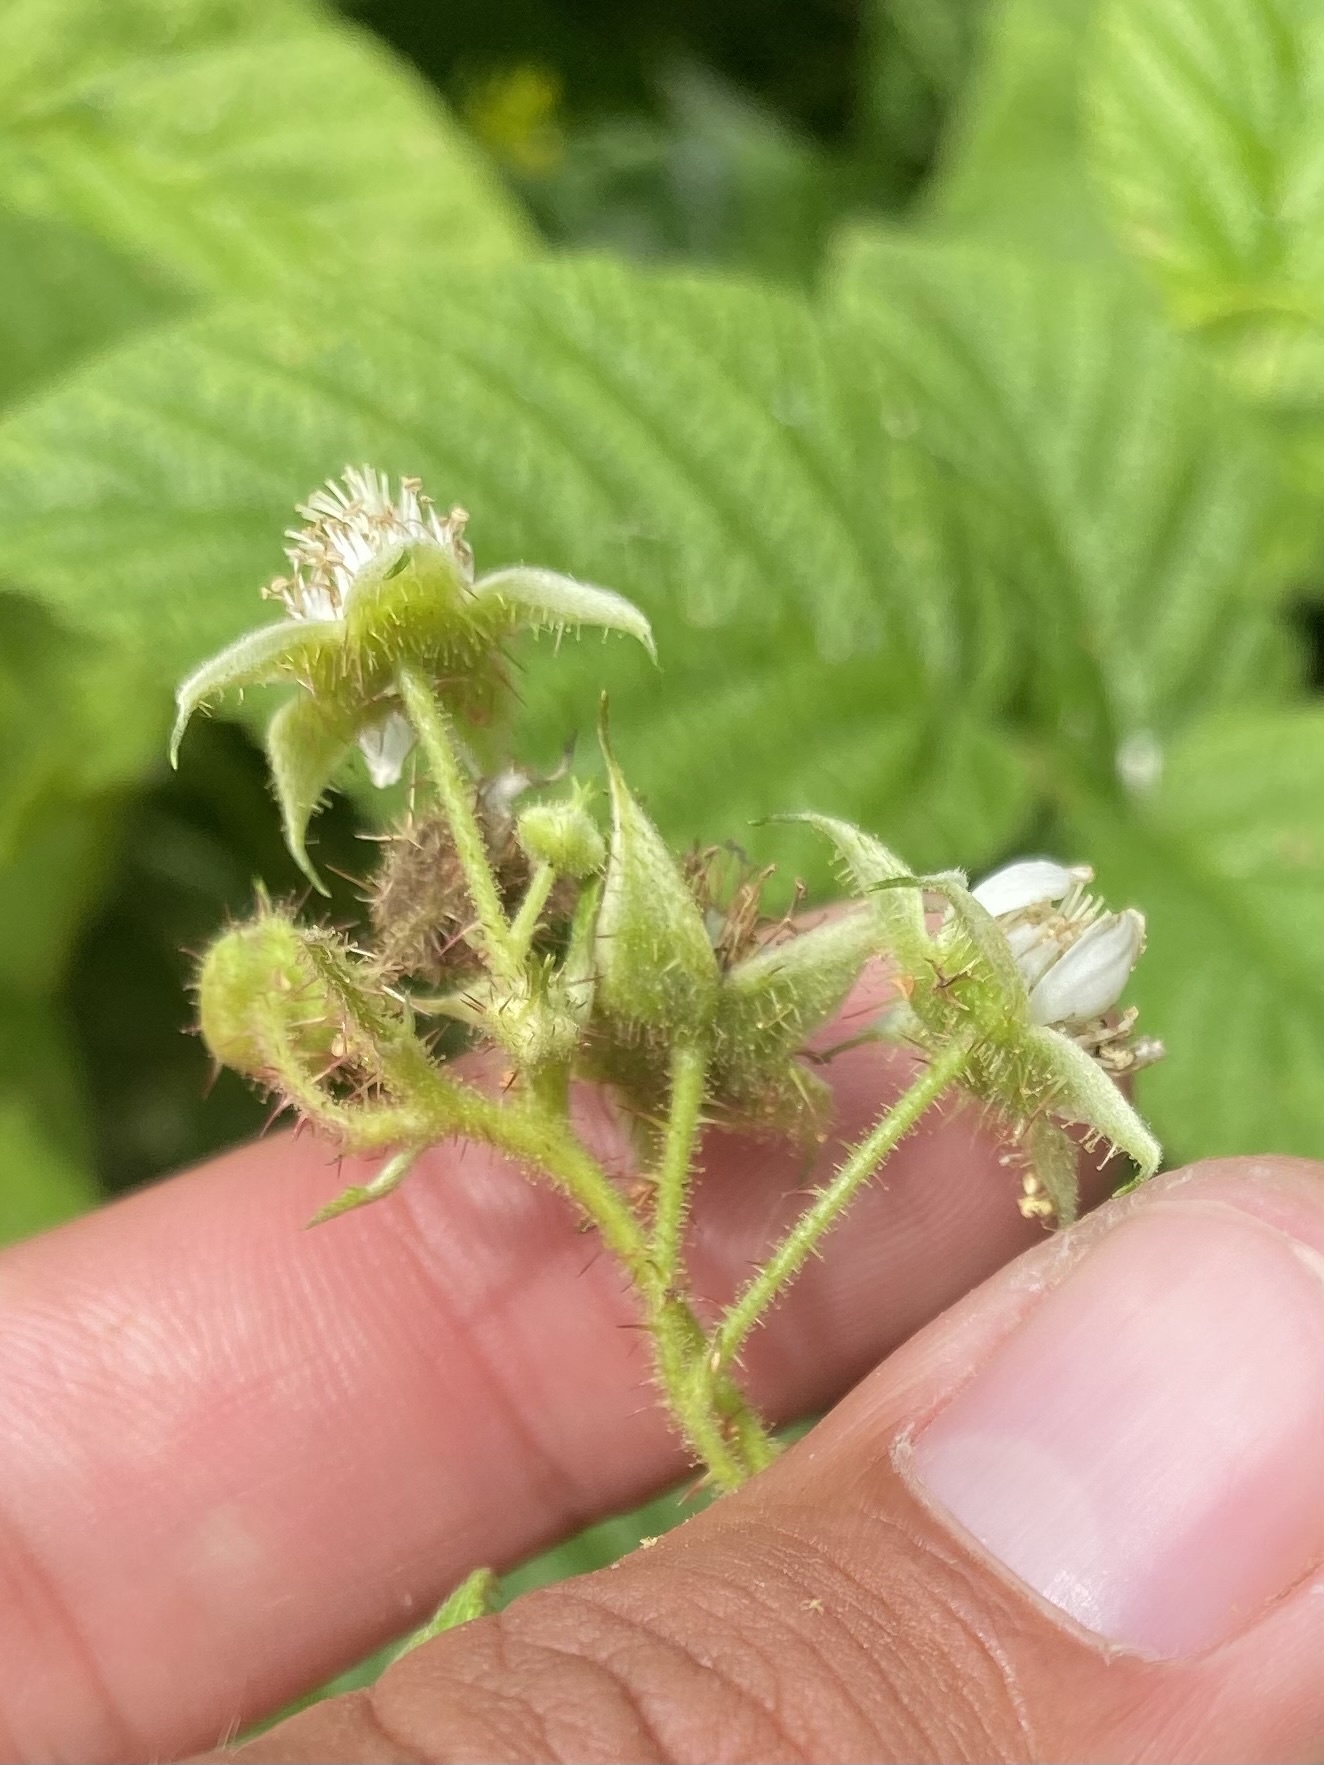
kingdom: Plantae
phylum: Tracheophyta
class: Magnoliopsida
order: Rosales
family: Rosaceae
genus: Rubus
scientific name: Rubus sachalinensis
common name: Red raspberry
